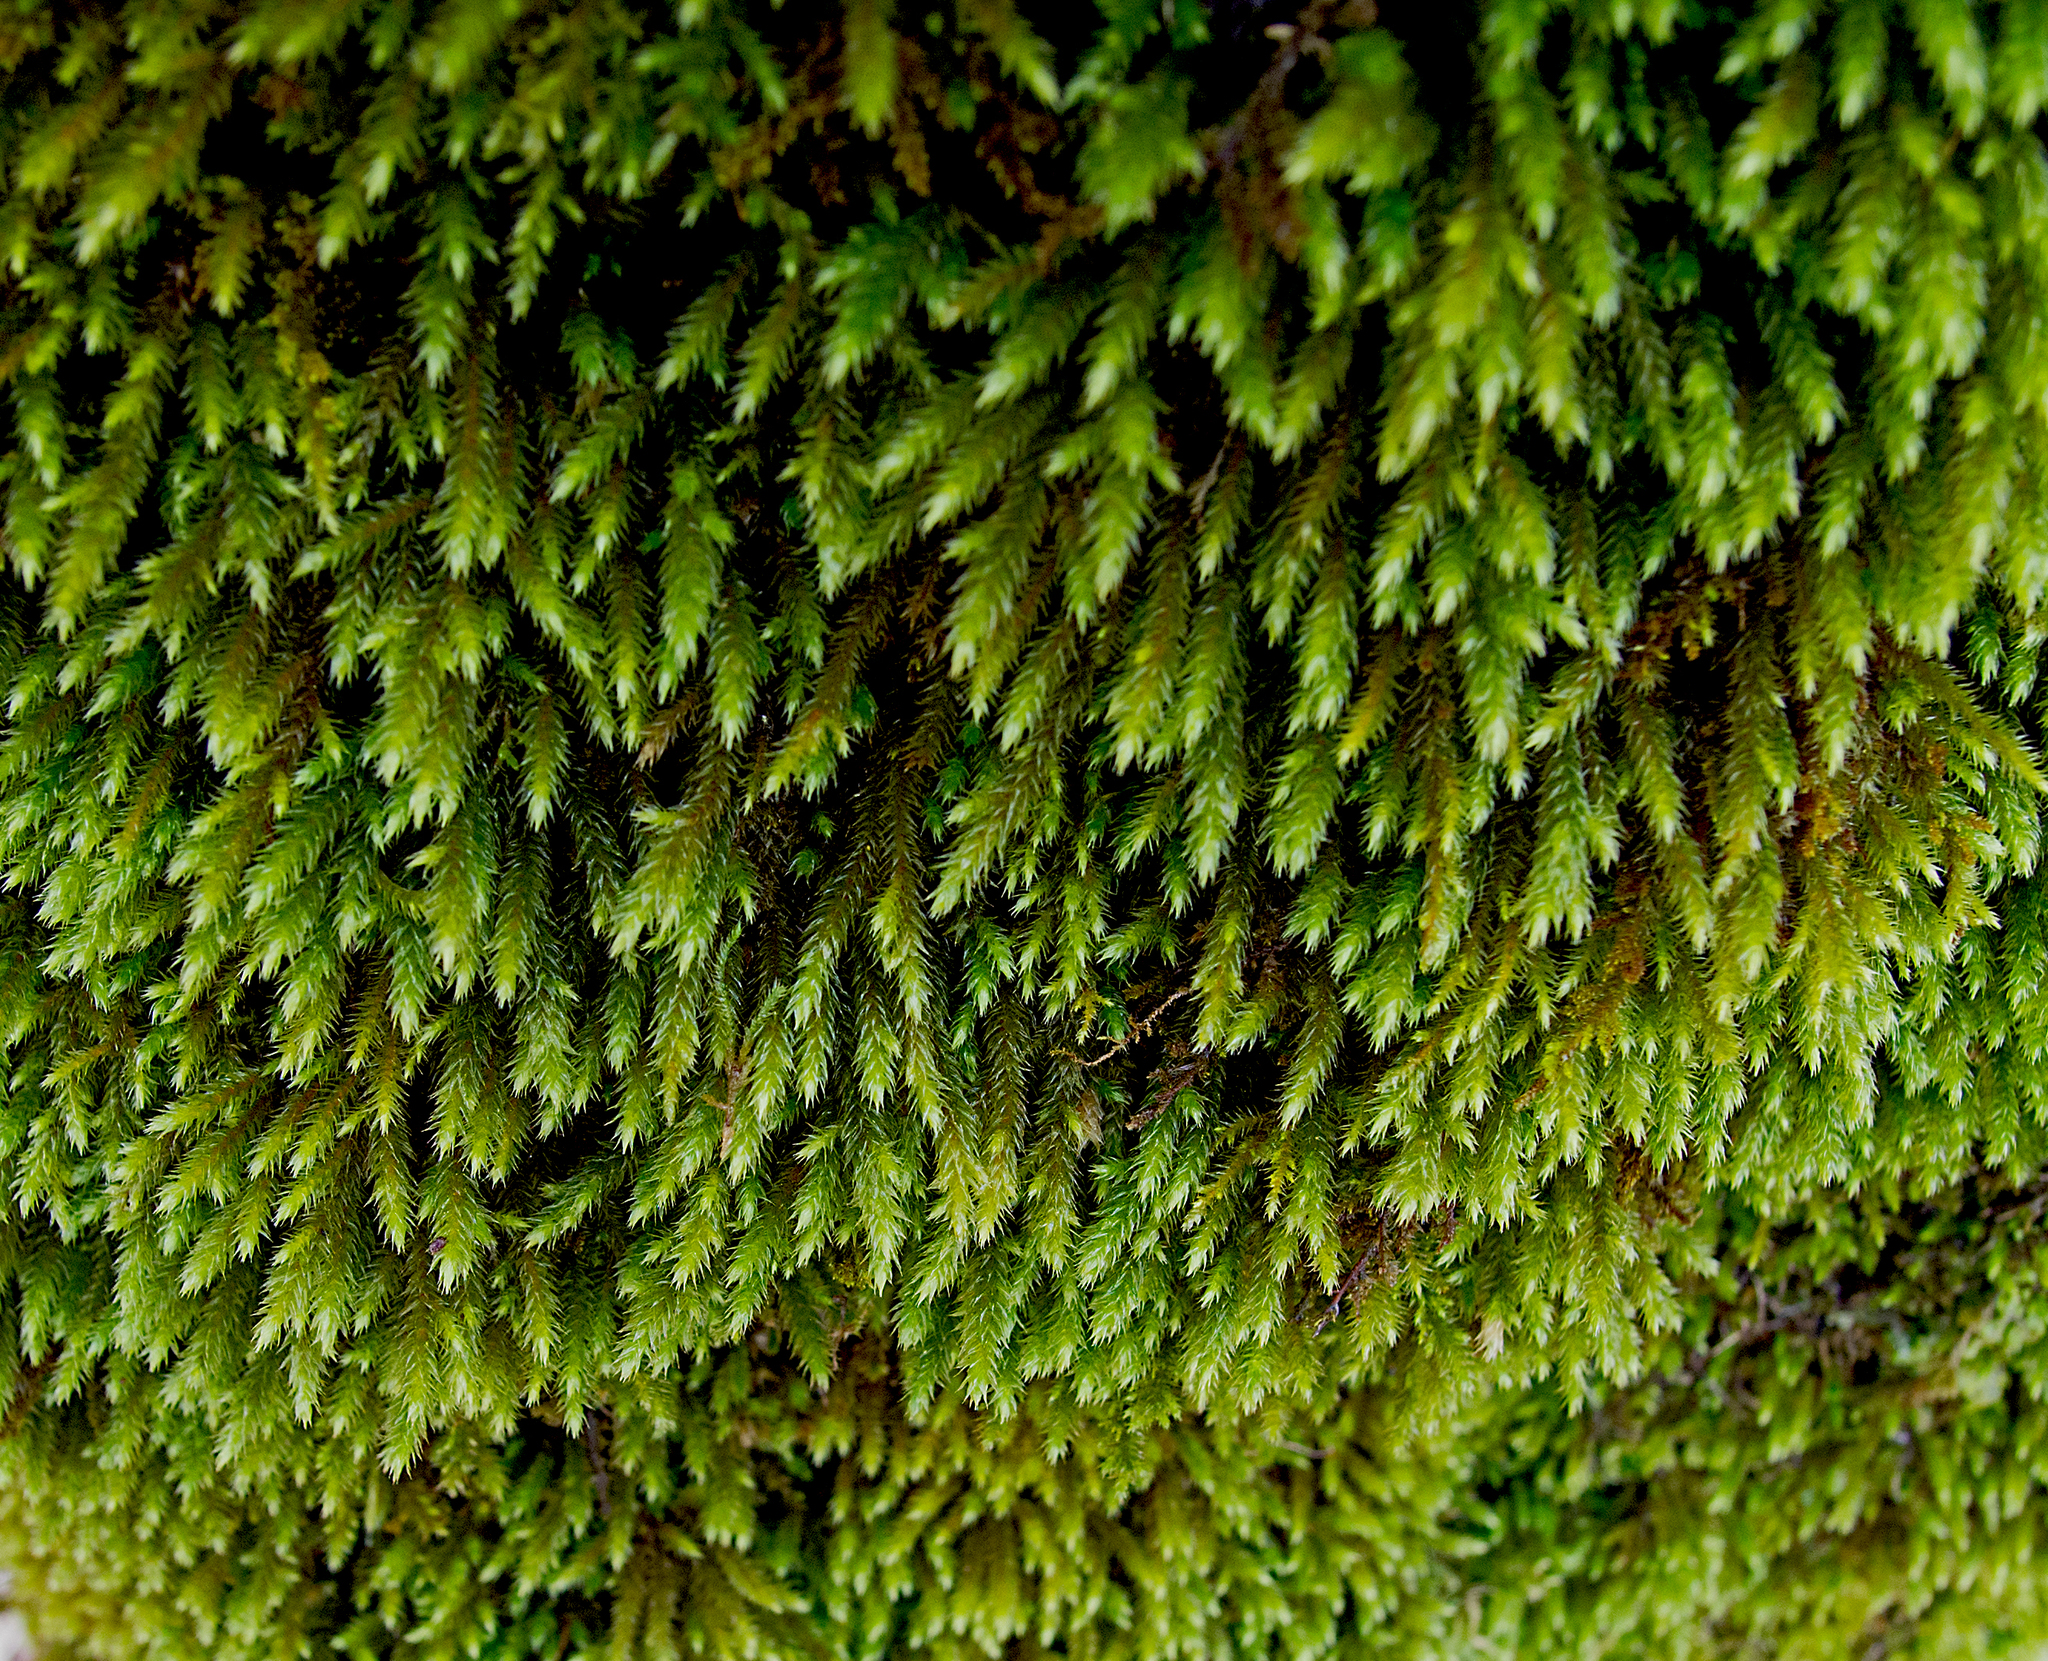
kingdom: Plantae
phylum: Bryophyta
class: Bryopsida
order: Hypnales
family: Leucodontaceae
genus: Leucodon
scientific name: Leucodon sciuroides
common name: Squirrel-tail moss
